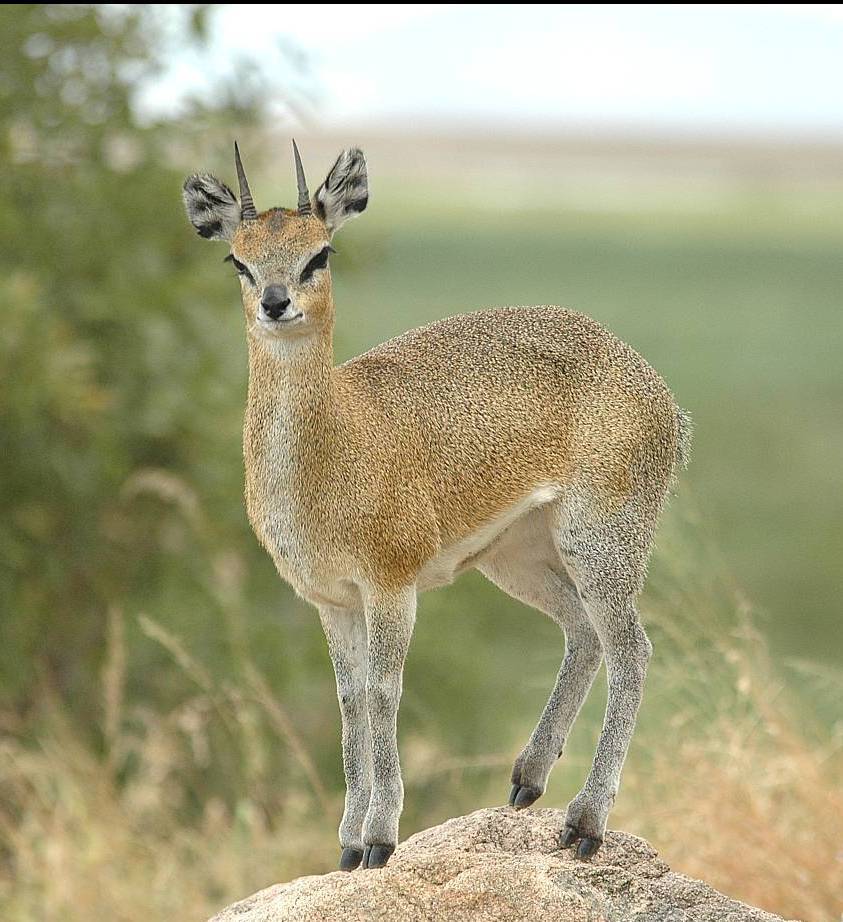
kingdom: Animalia
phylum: Chordata
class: Mammalia
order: Artiodactyla
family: Bovidae
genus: Oreotragus
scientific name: Oreotragus oreotragus
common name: Klipspringer
